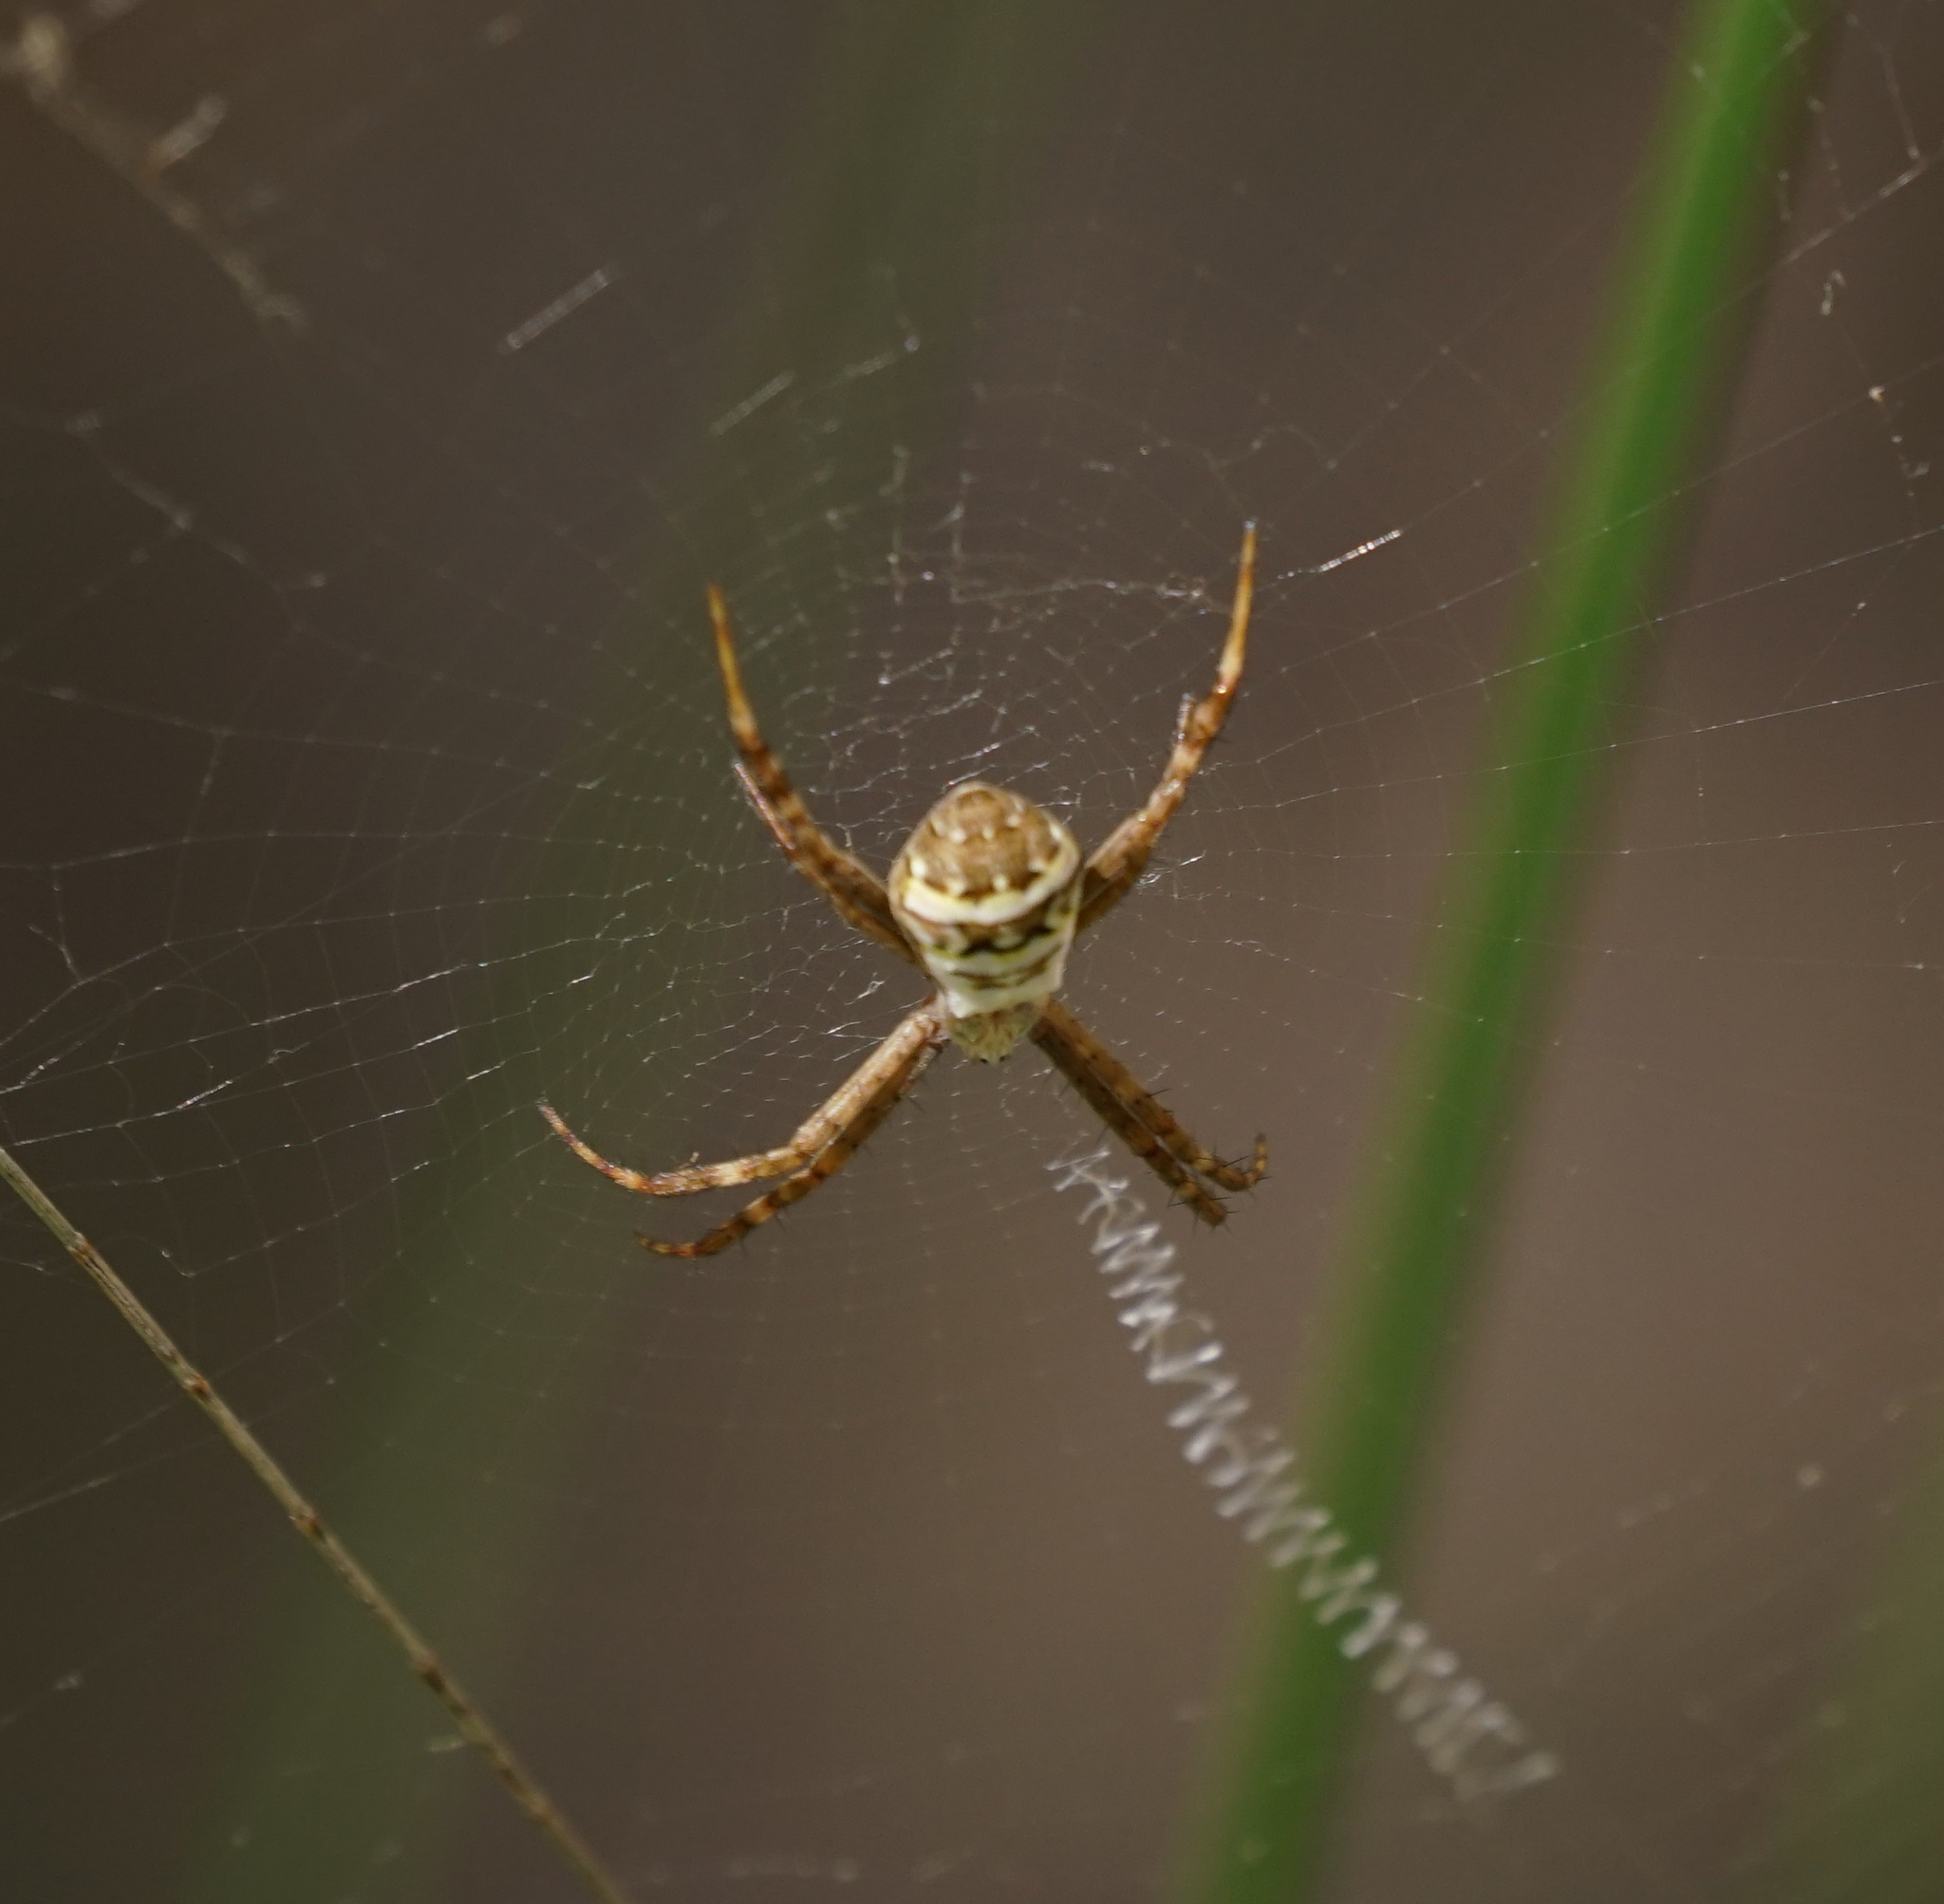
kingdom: Animalia
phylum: Arthropoda
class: Arachnida
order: Araneae
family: Araneidae
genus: Argiope
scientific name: Argiope keyserlingi
